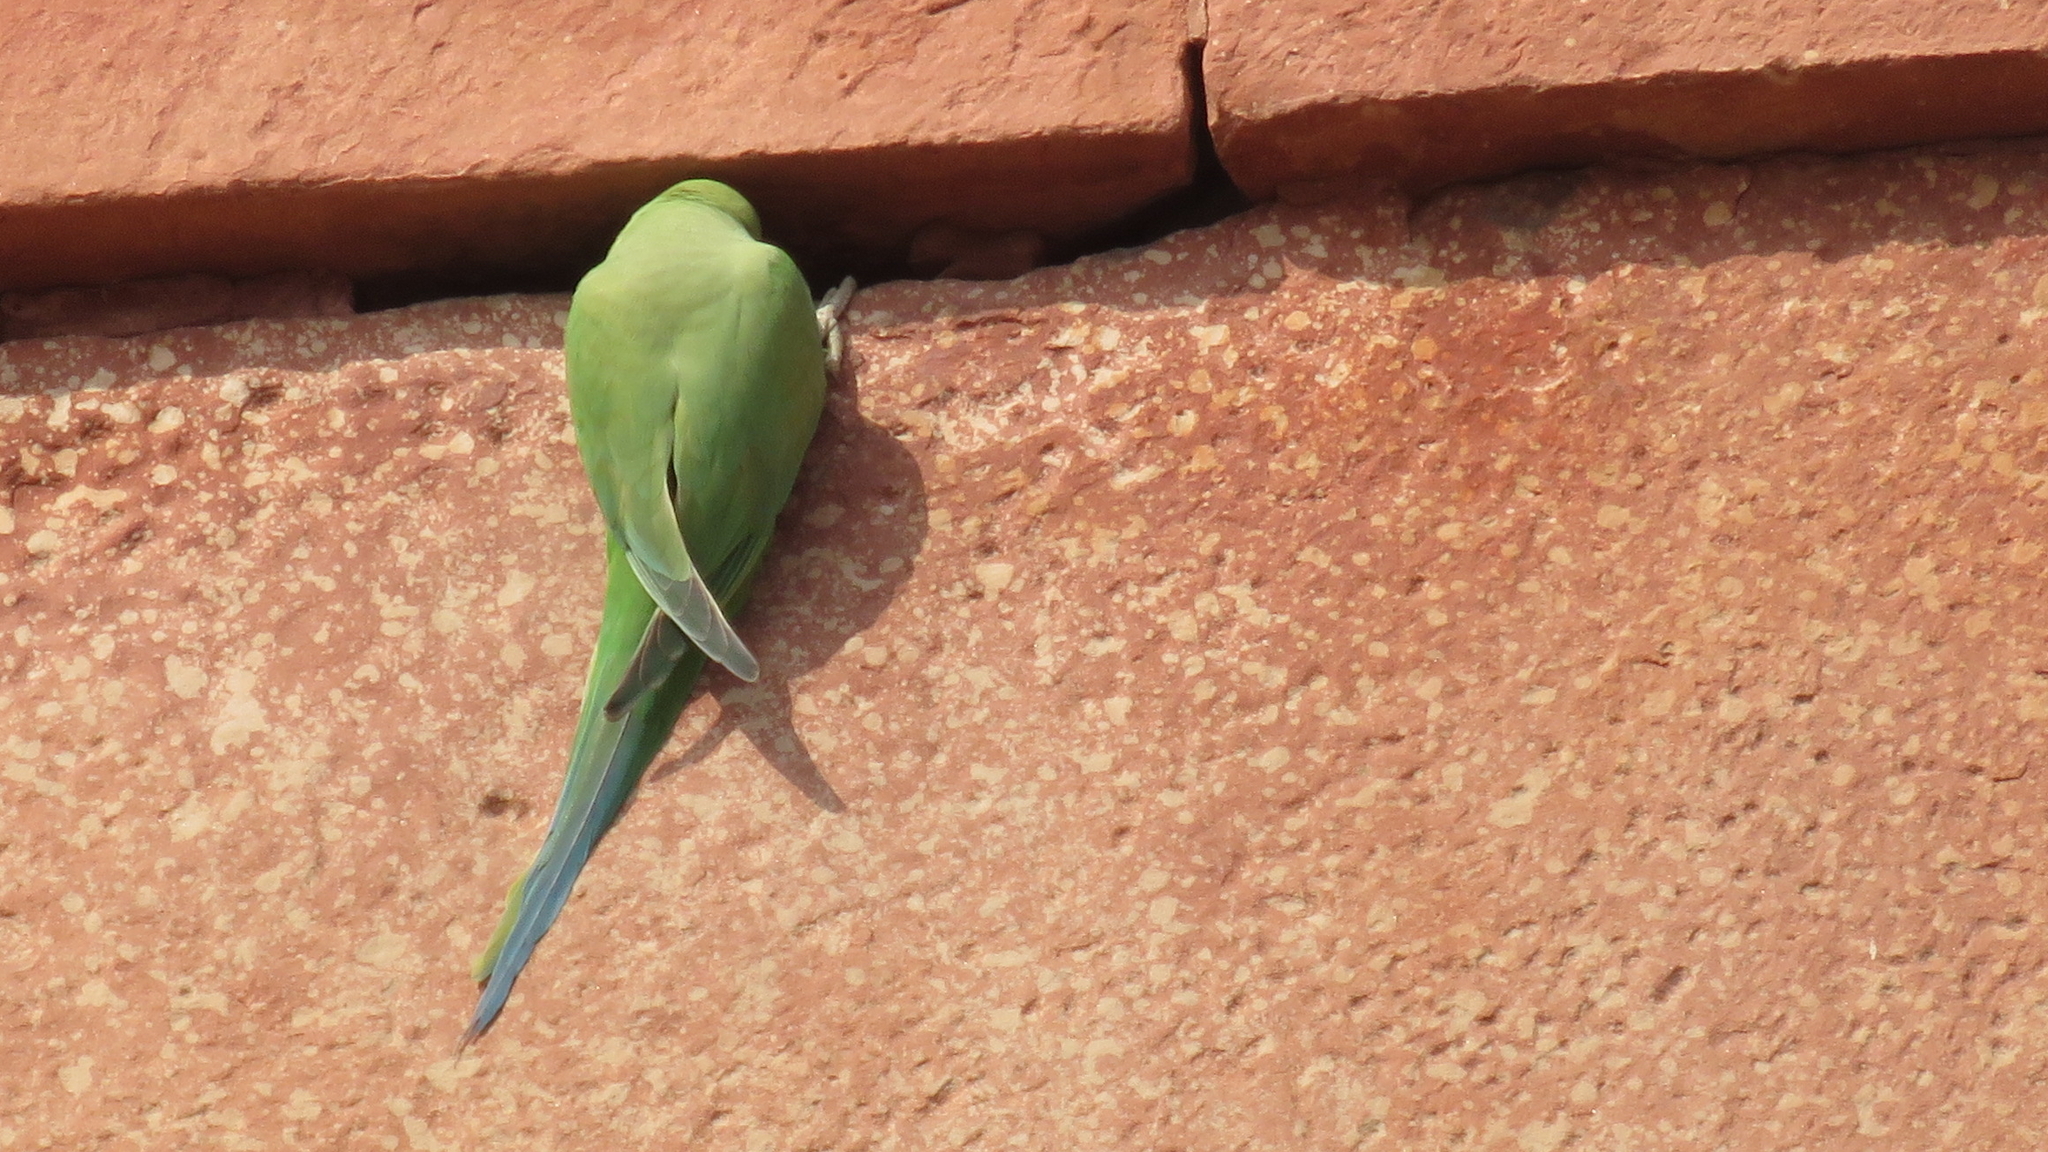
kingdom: Animalia
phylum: Chordata
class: Aves
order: Psittaciformes
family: Psittacidae
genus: Psittacula
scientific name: Psittacula krameri
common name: Rose-ringed parakeet
